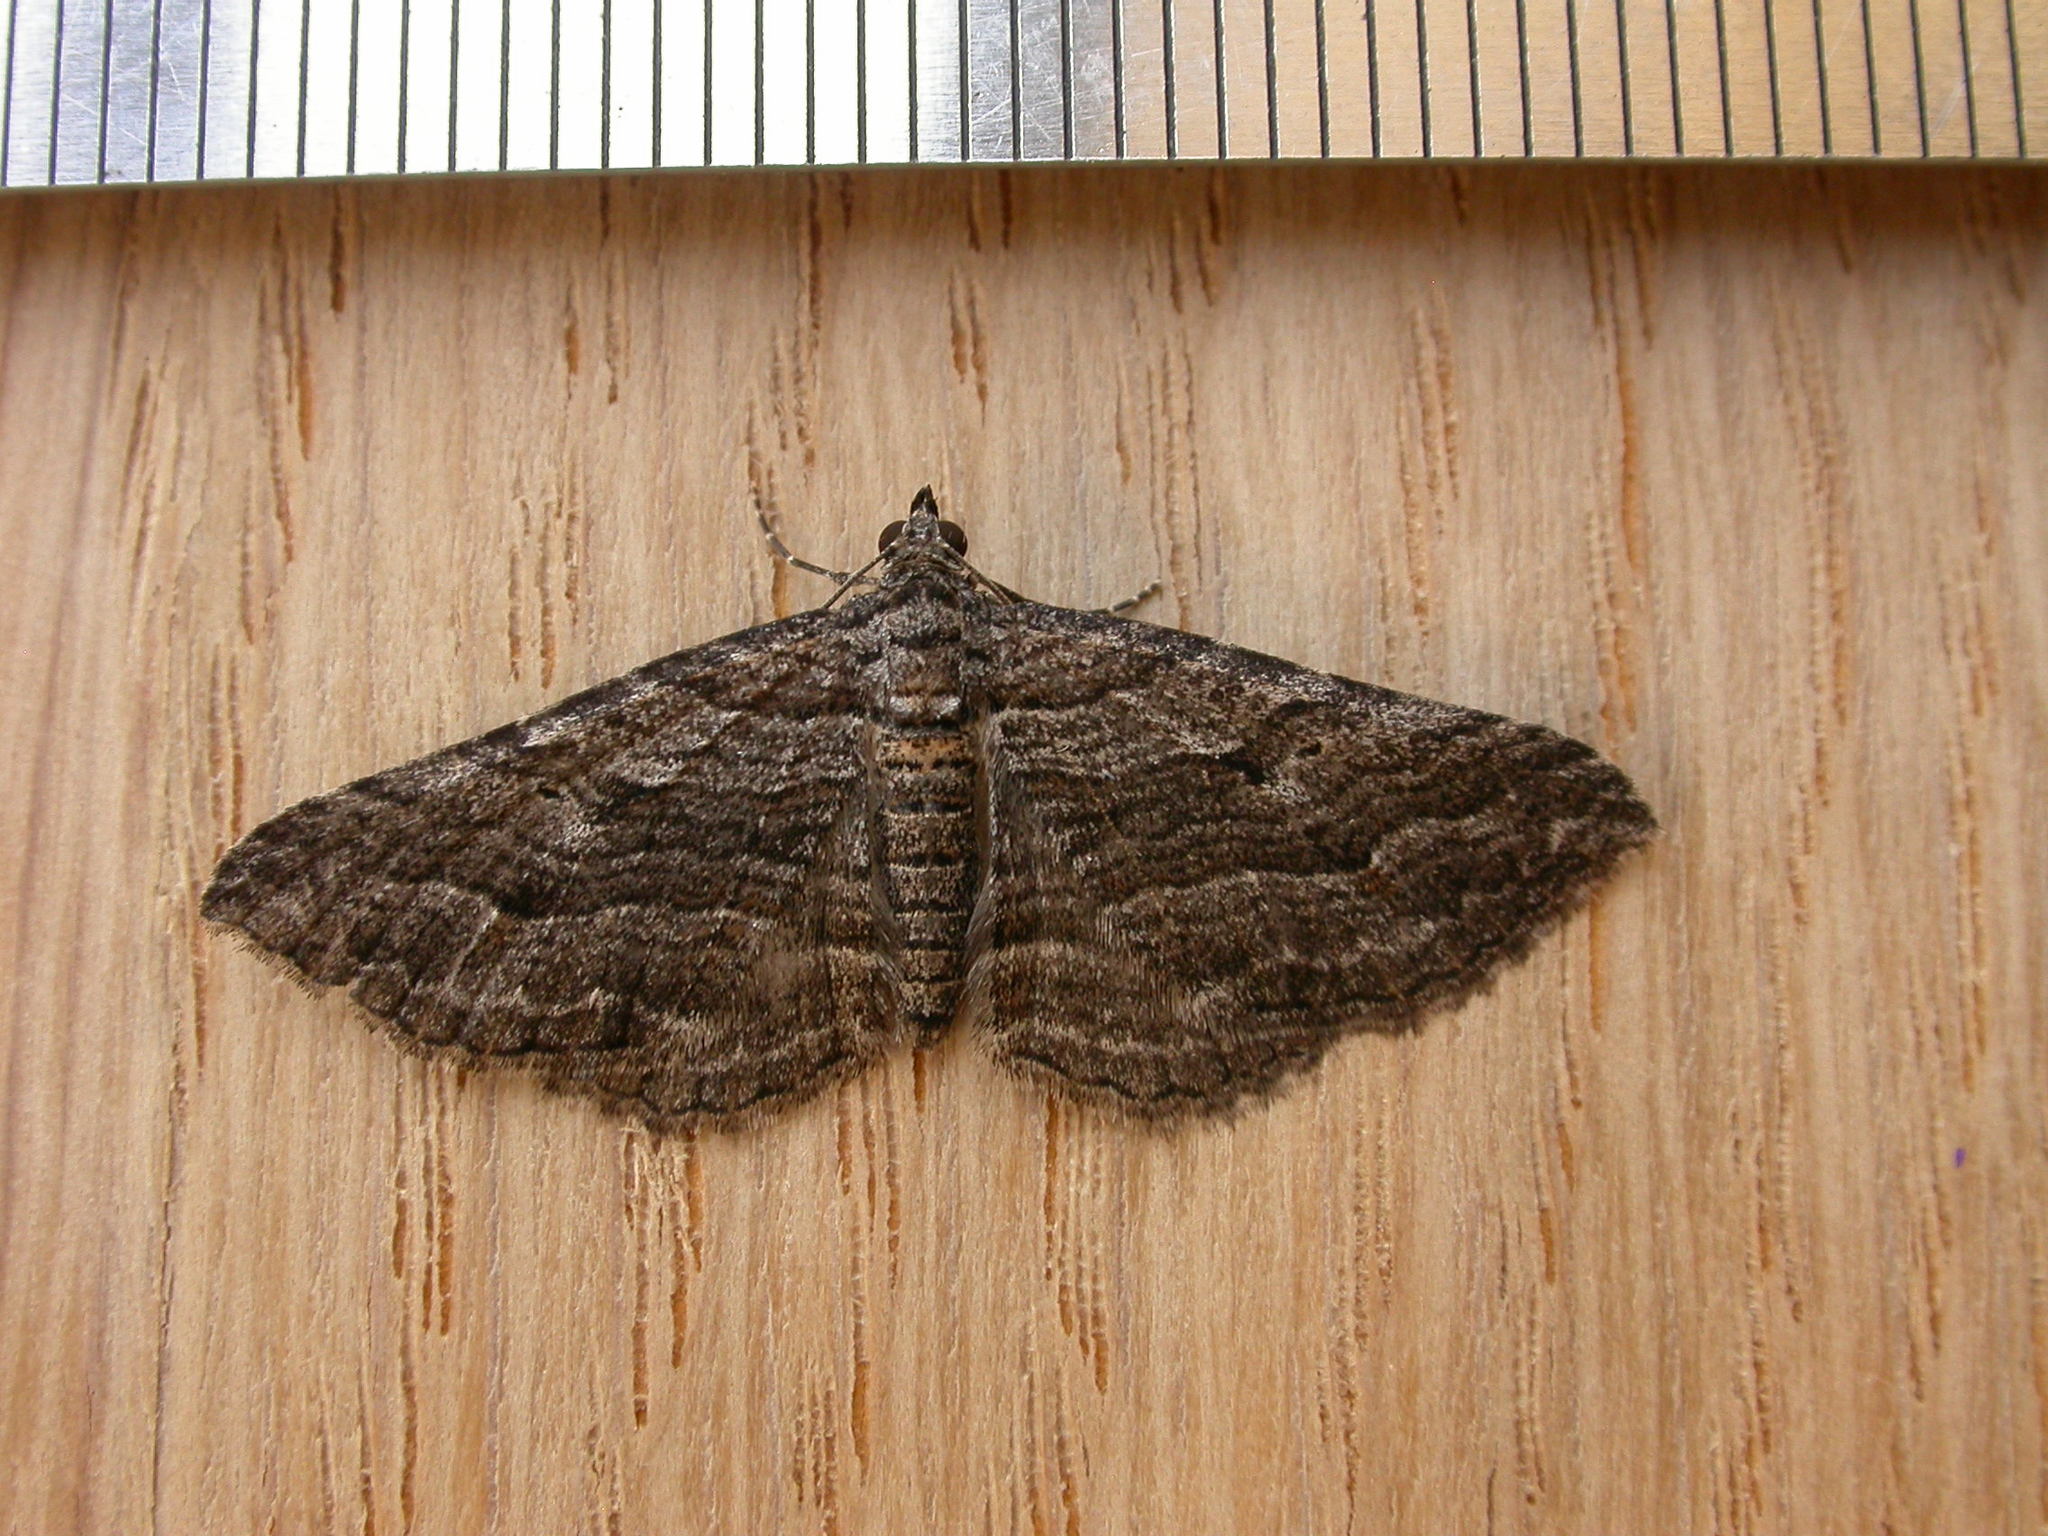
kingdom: Animalia
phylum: Arthropoda
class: Insecta
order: Lepidoptera
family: Geometridae
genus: Chrysolarentia
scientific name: Chrysolarentia severata
